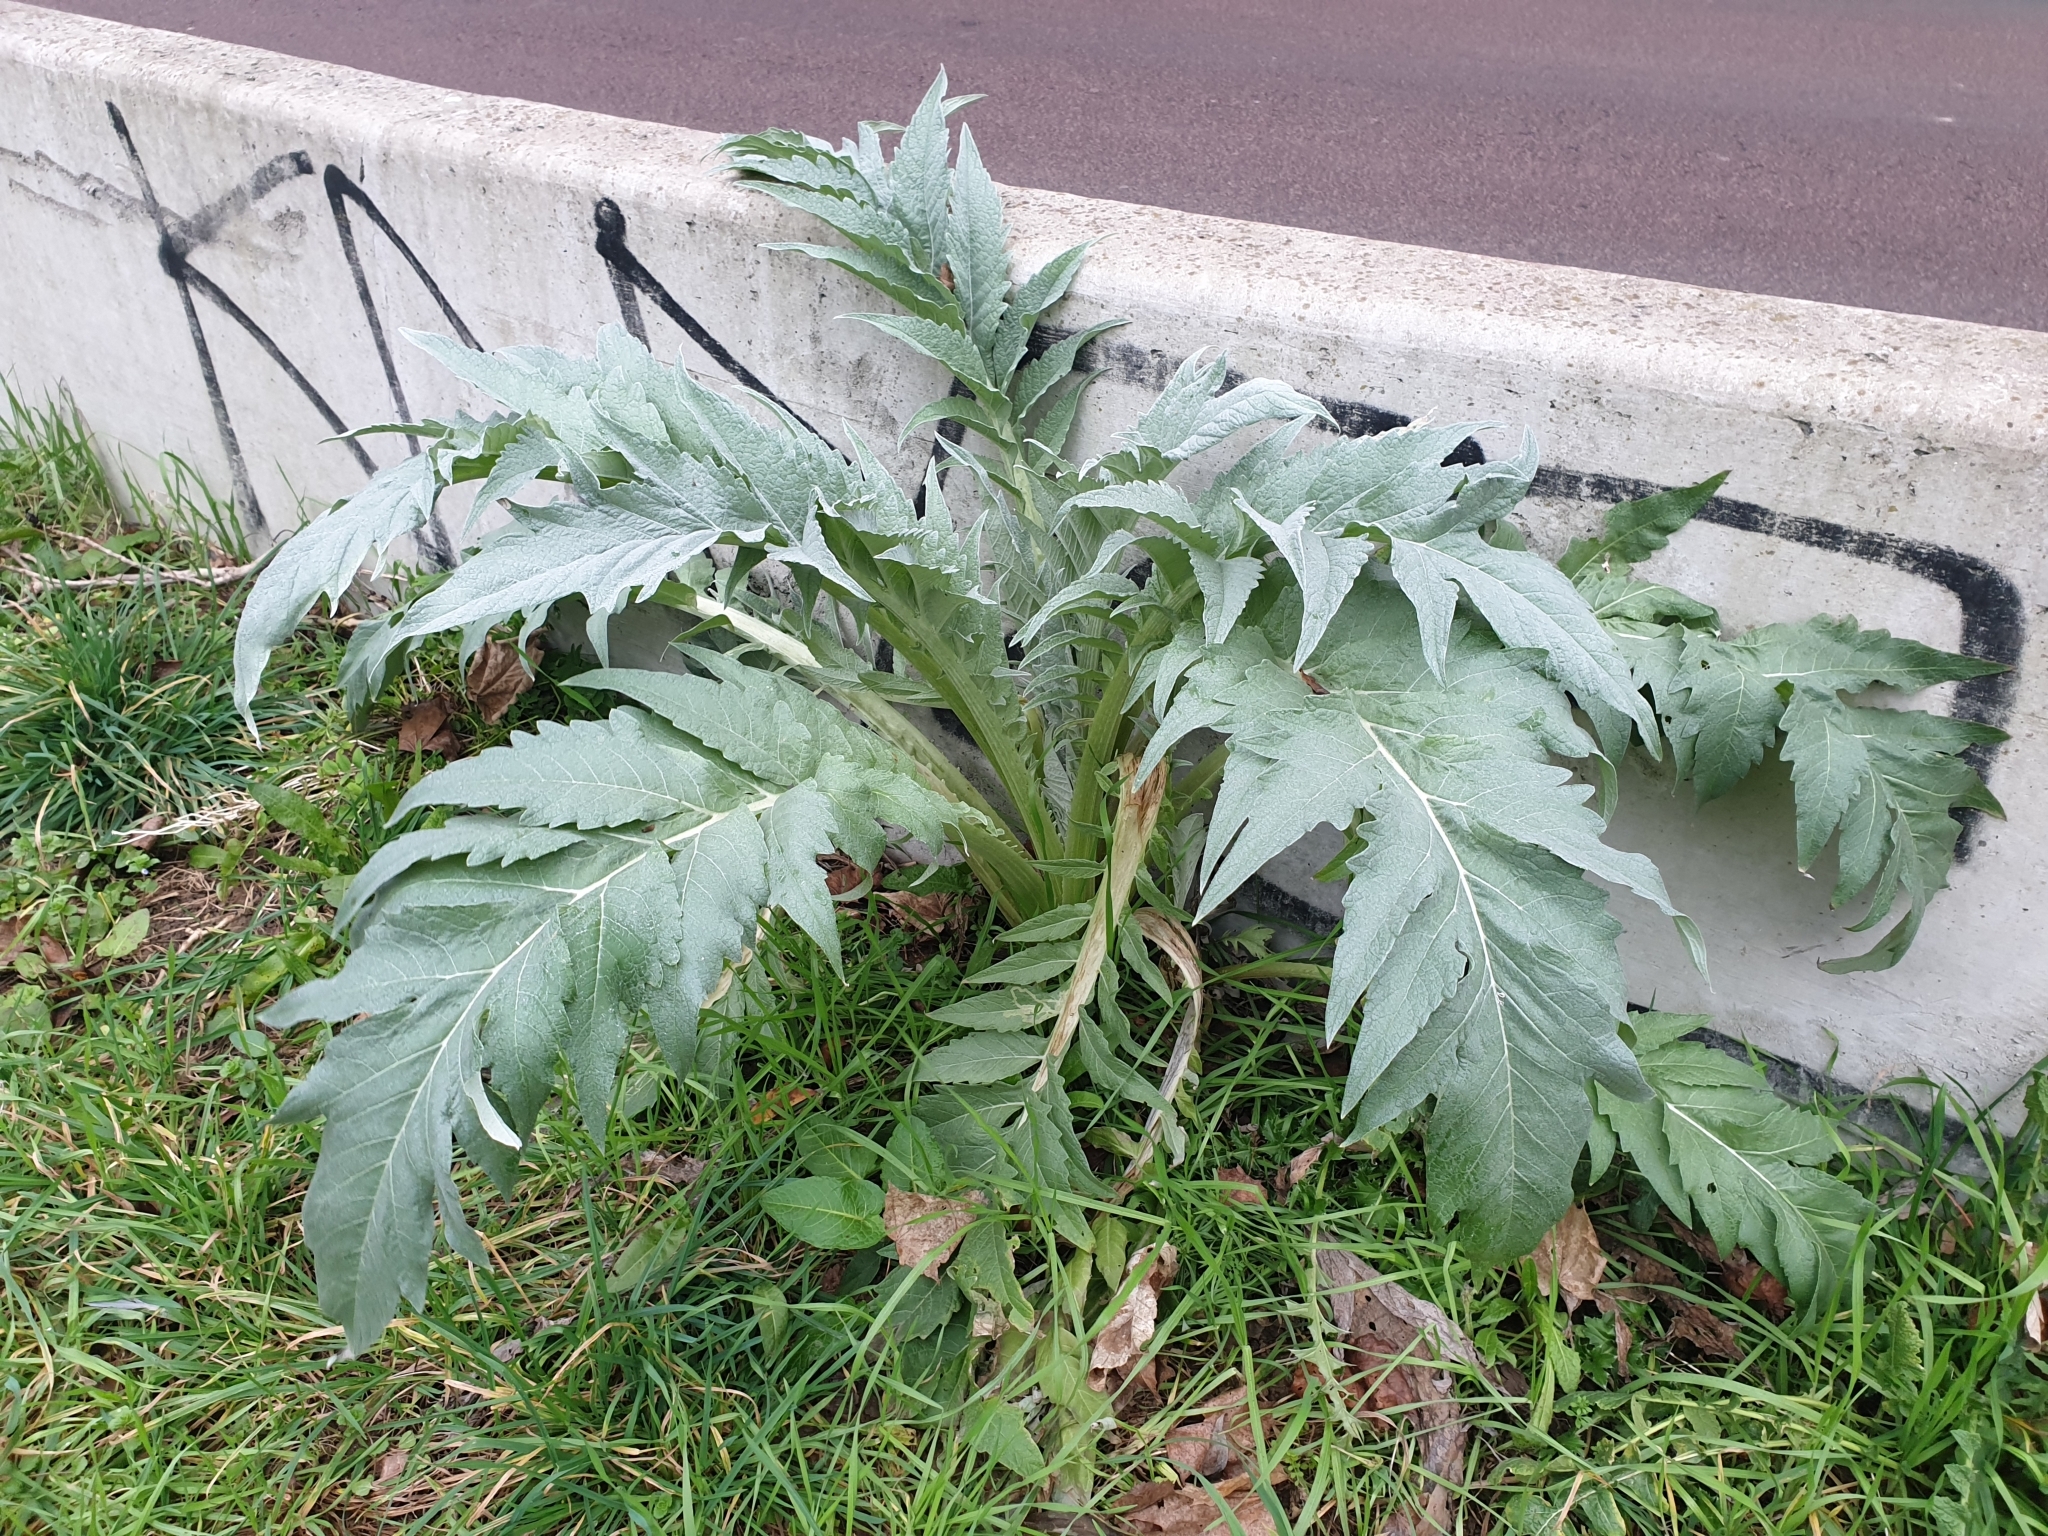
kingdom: Plantae
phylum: Tracheophyta
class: Magnoliopsida
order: Asterales
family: Asteraceae
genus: Cynara
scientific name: Cynara cardunculus
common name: Globe artichoke
